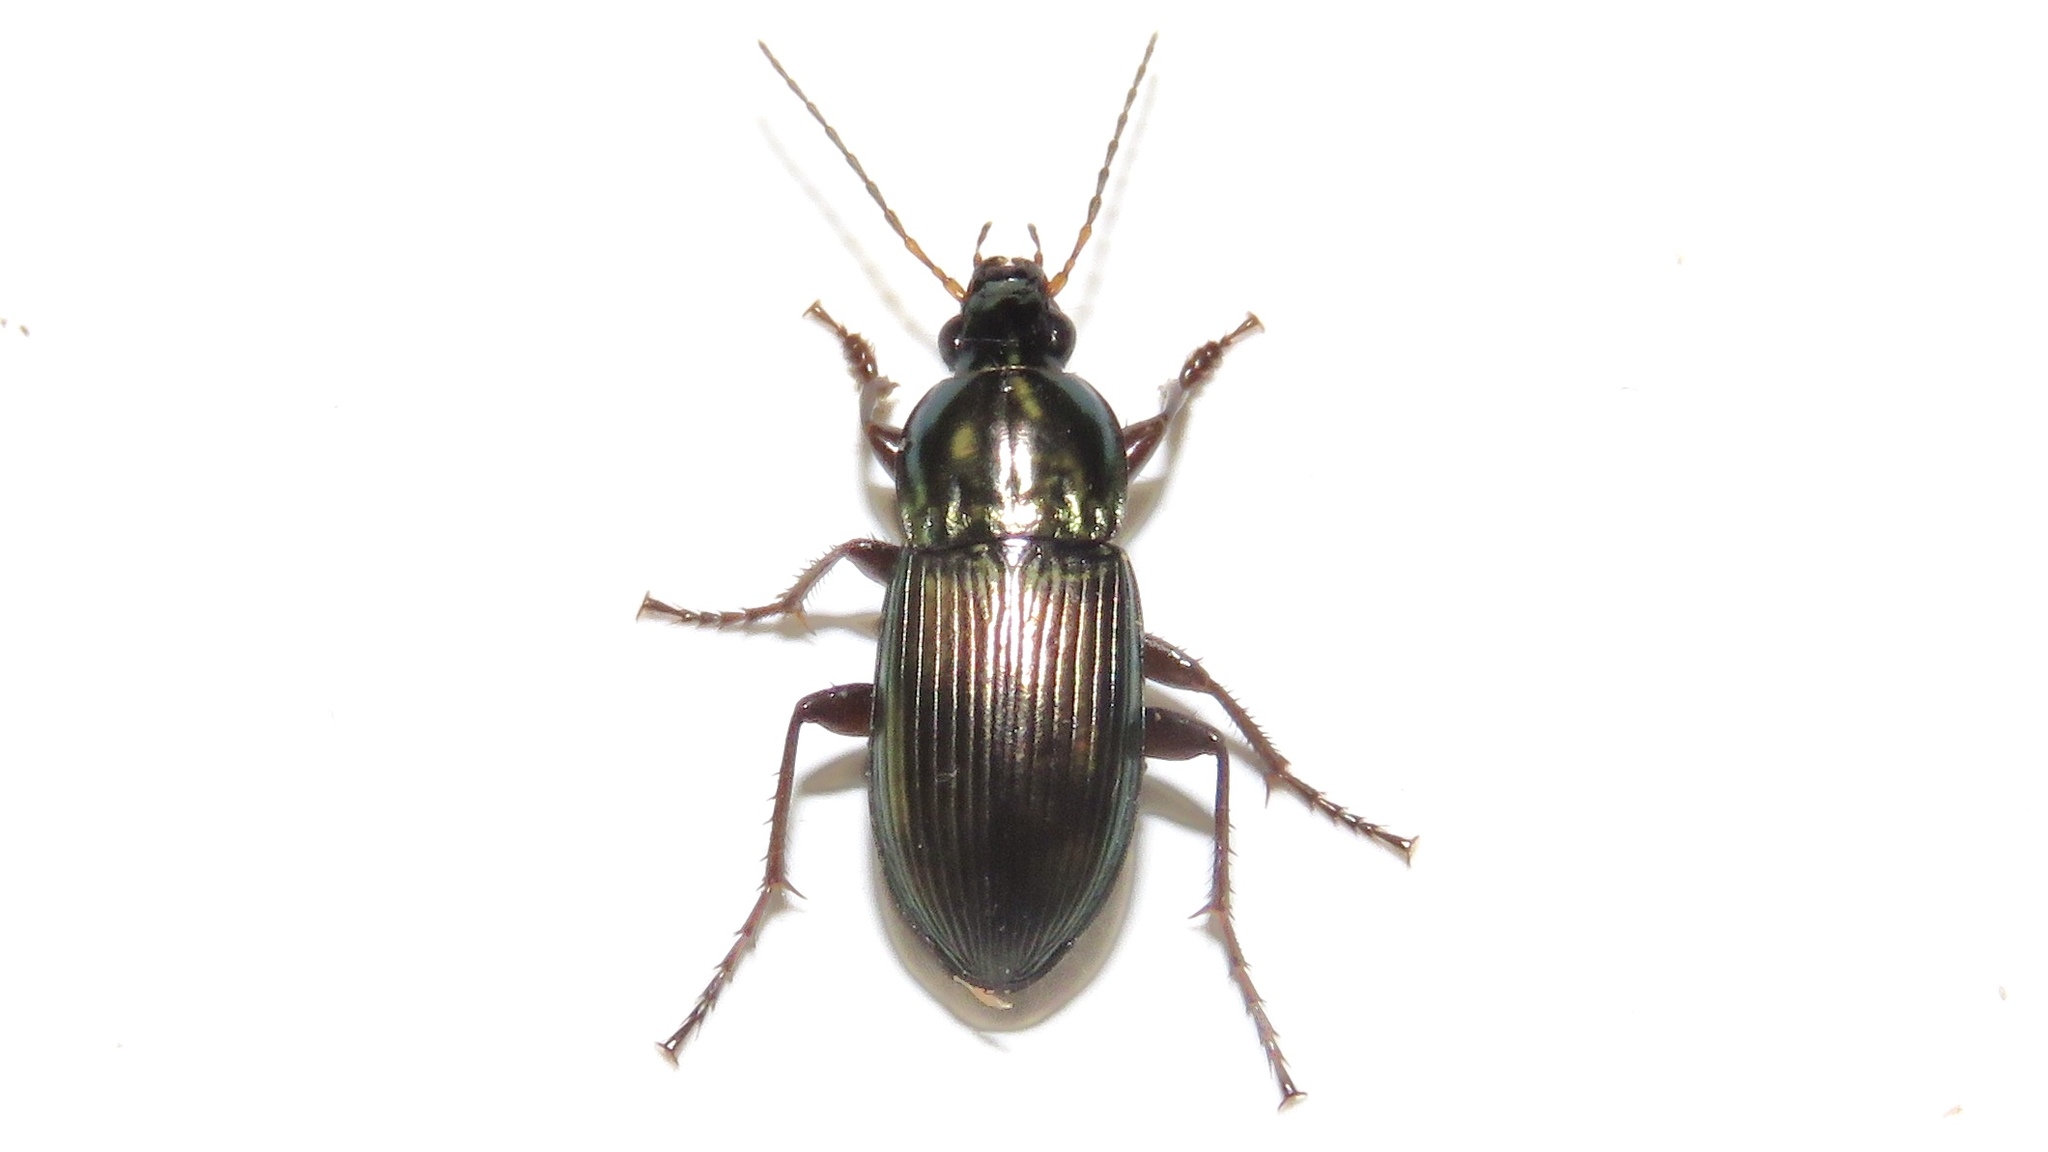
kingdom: Animalia
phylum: Arthropoda
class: Insecta
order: Coleoptera
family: Carabidae
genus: Poecilus
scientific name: Poecilus lucublandus
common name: Woodland ground beetle
